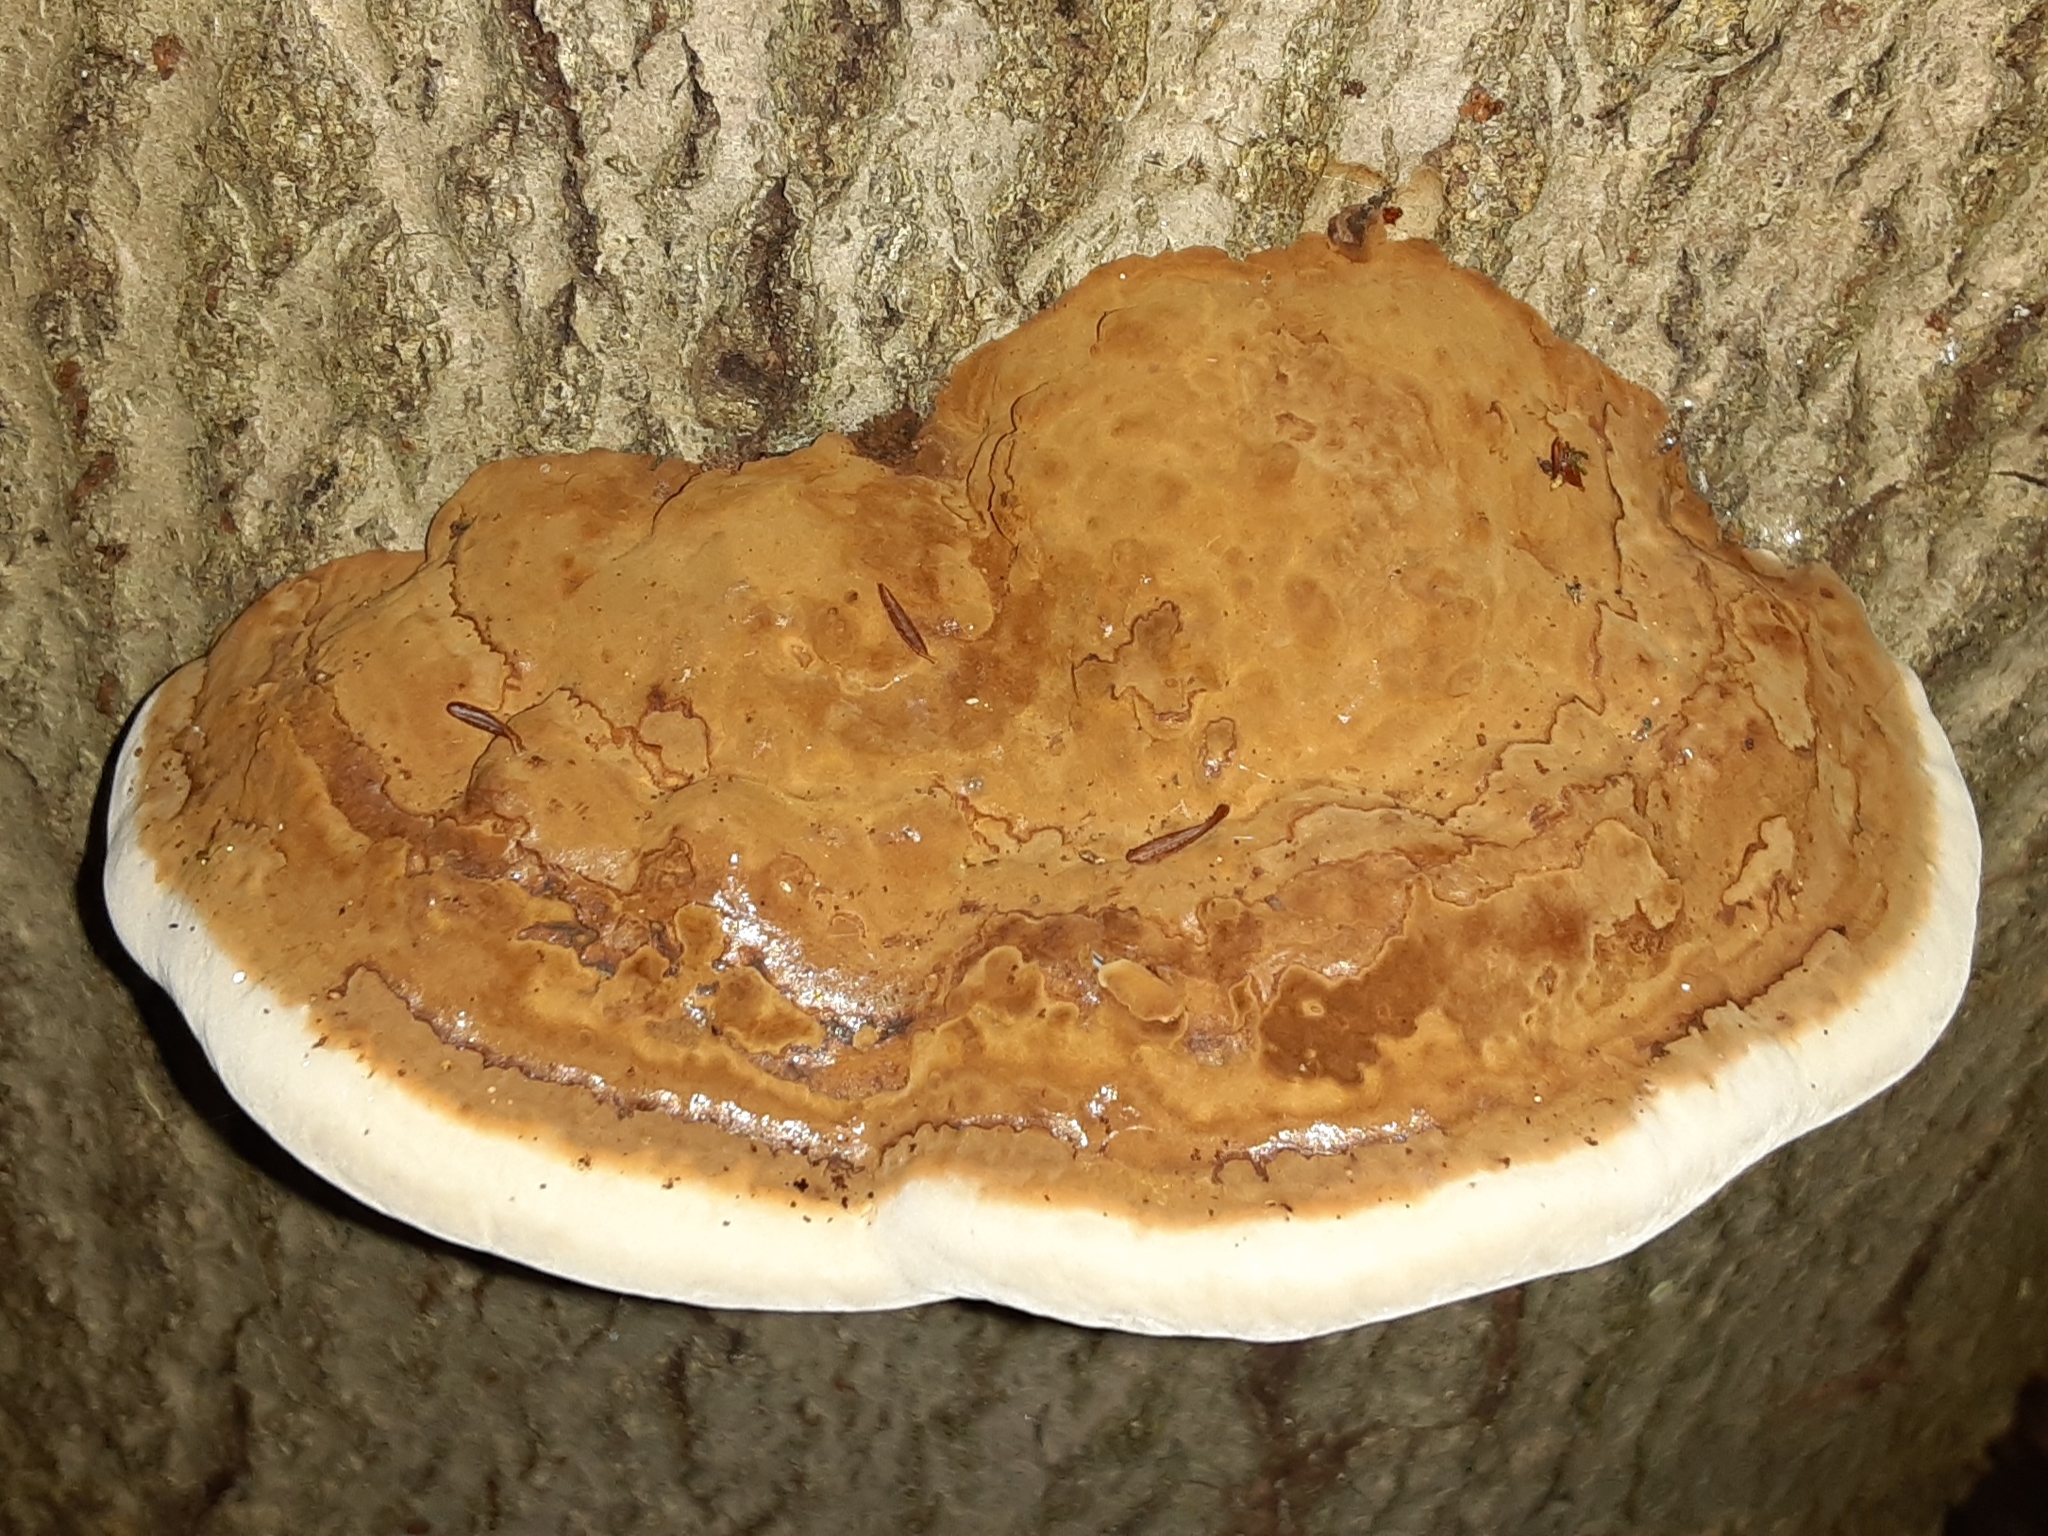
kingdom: Fungi
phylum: Basidiomycota
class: Agaricomycetes
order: Polyporales
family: Polyporaceae
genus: Ganoderma
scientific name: Ganoderma applanatum
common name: Artist's bracket
